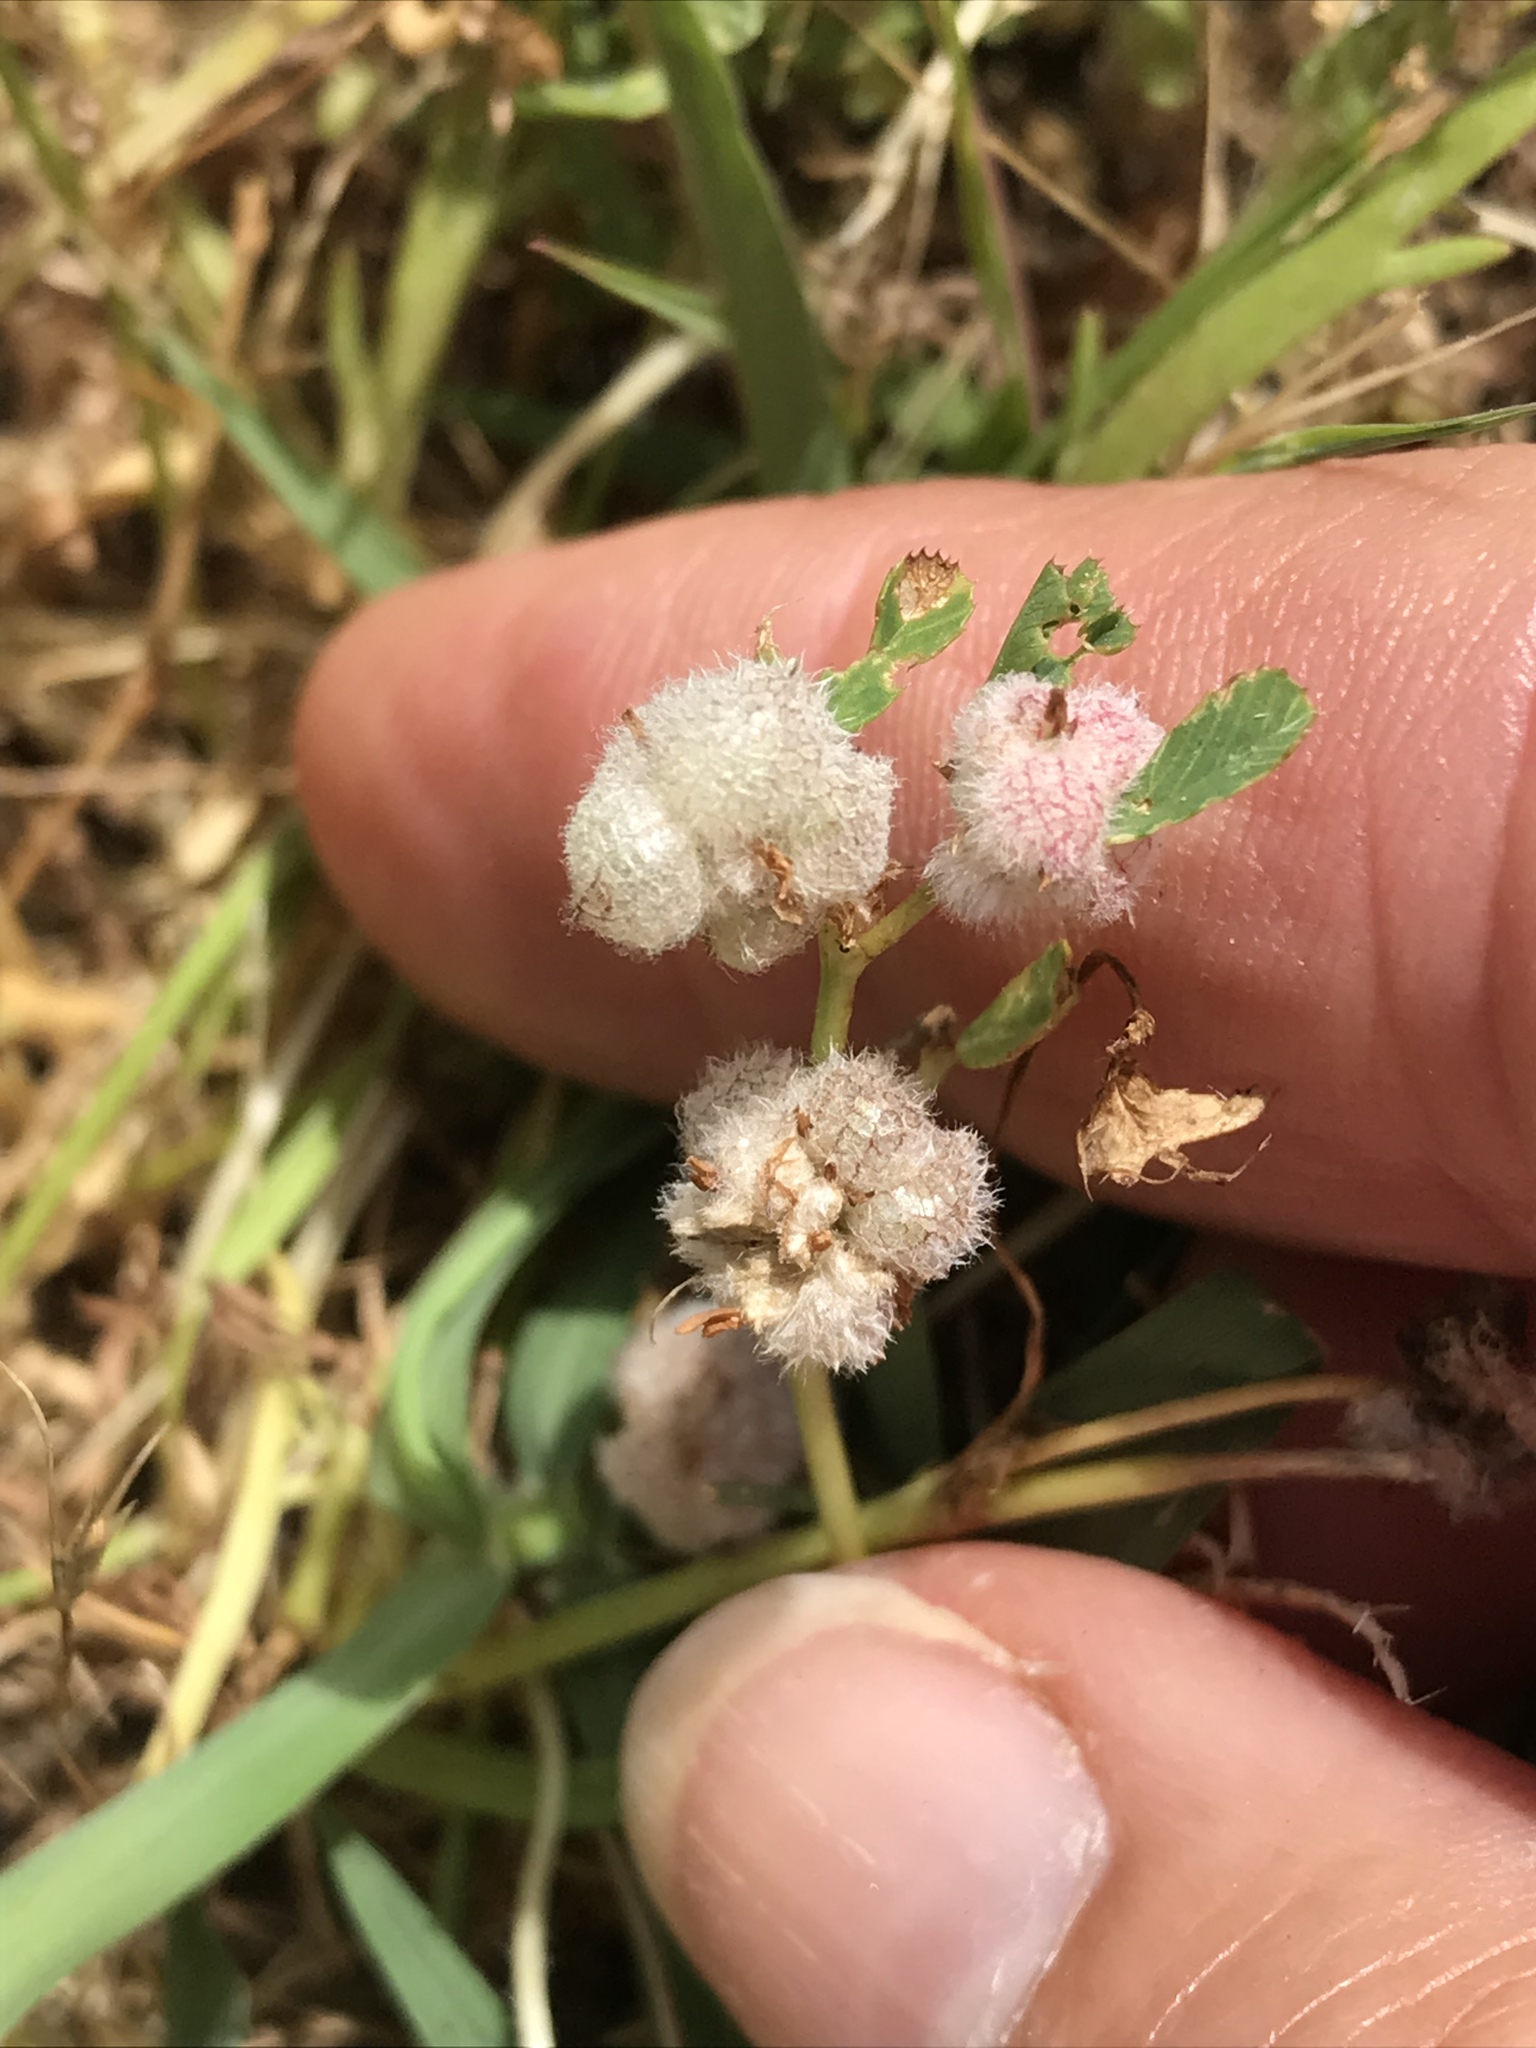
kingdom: Plantae
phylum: Tracheophyta
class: Magnoliopsida
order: Fabales
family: Fabaceae
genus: Trifolium
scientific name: Trifolium tomentosum
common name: Woolly clover
